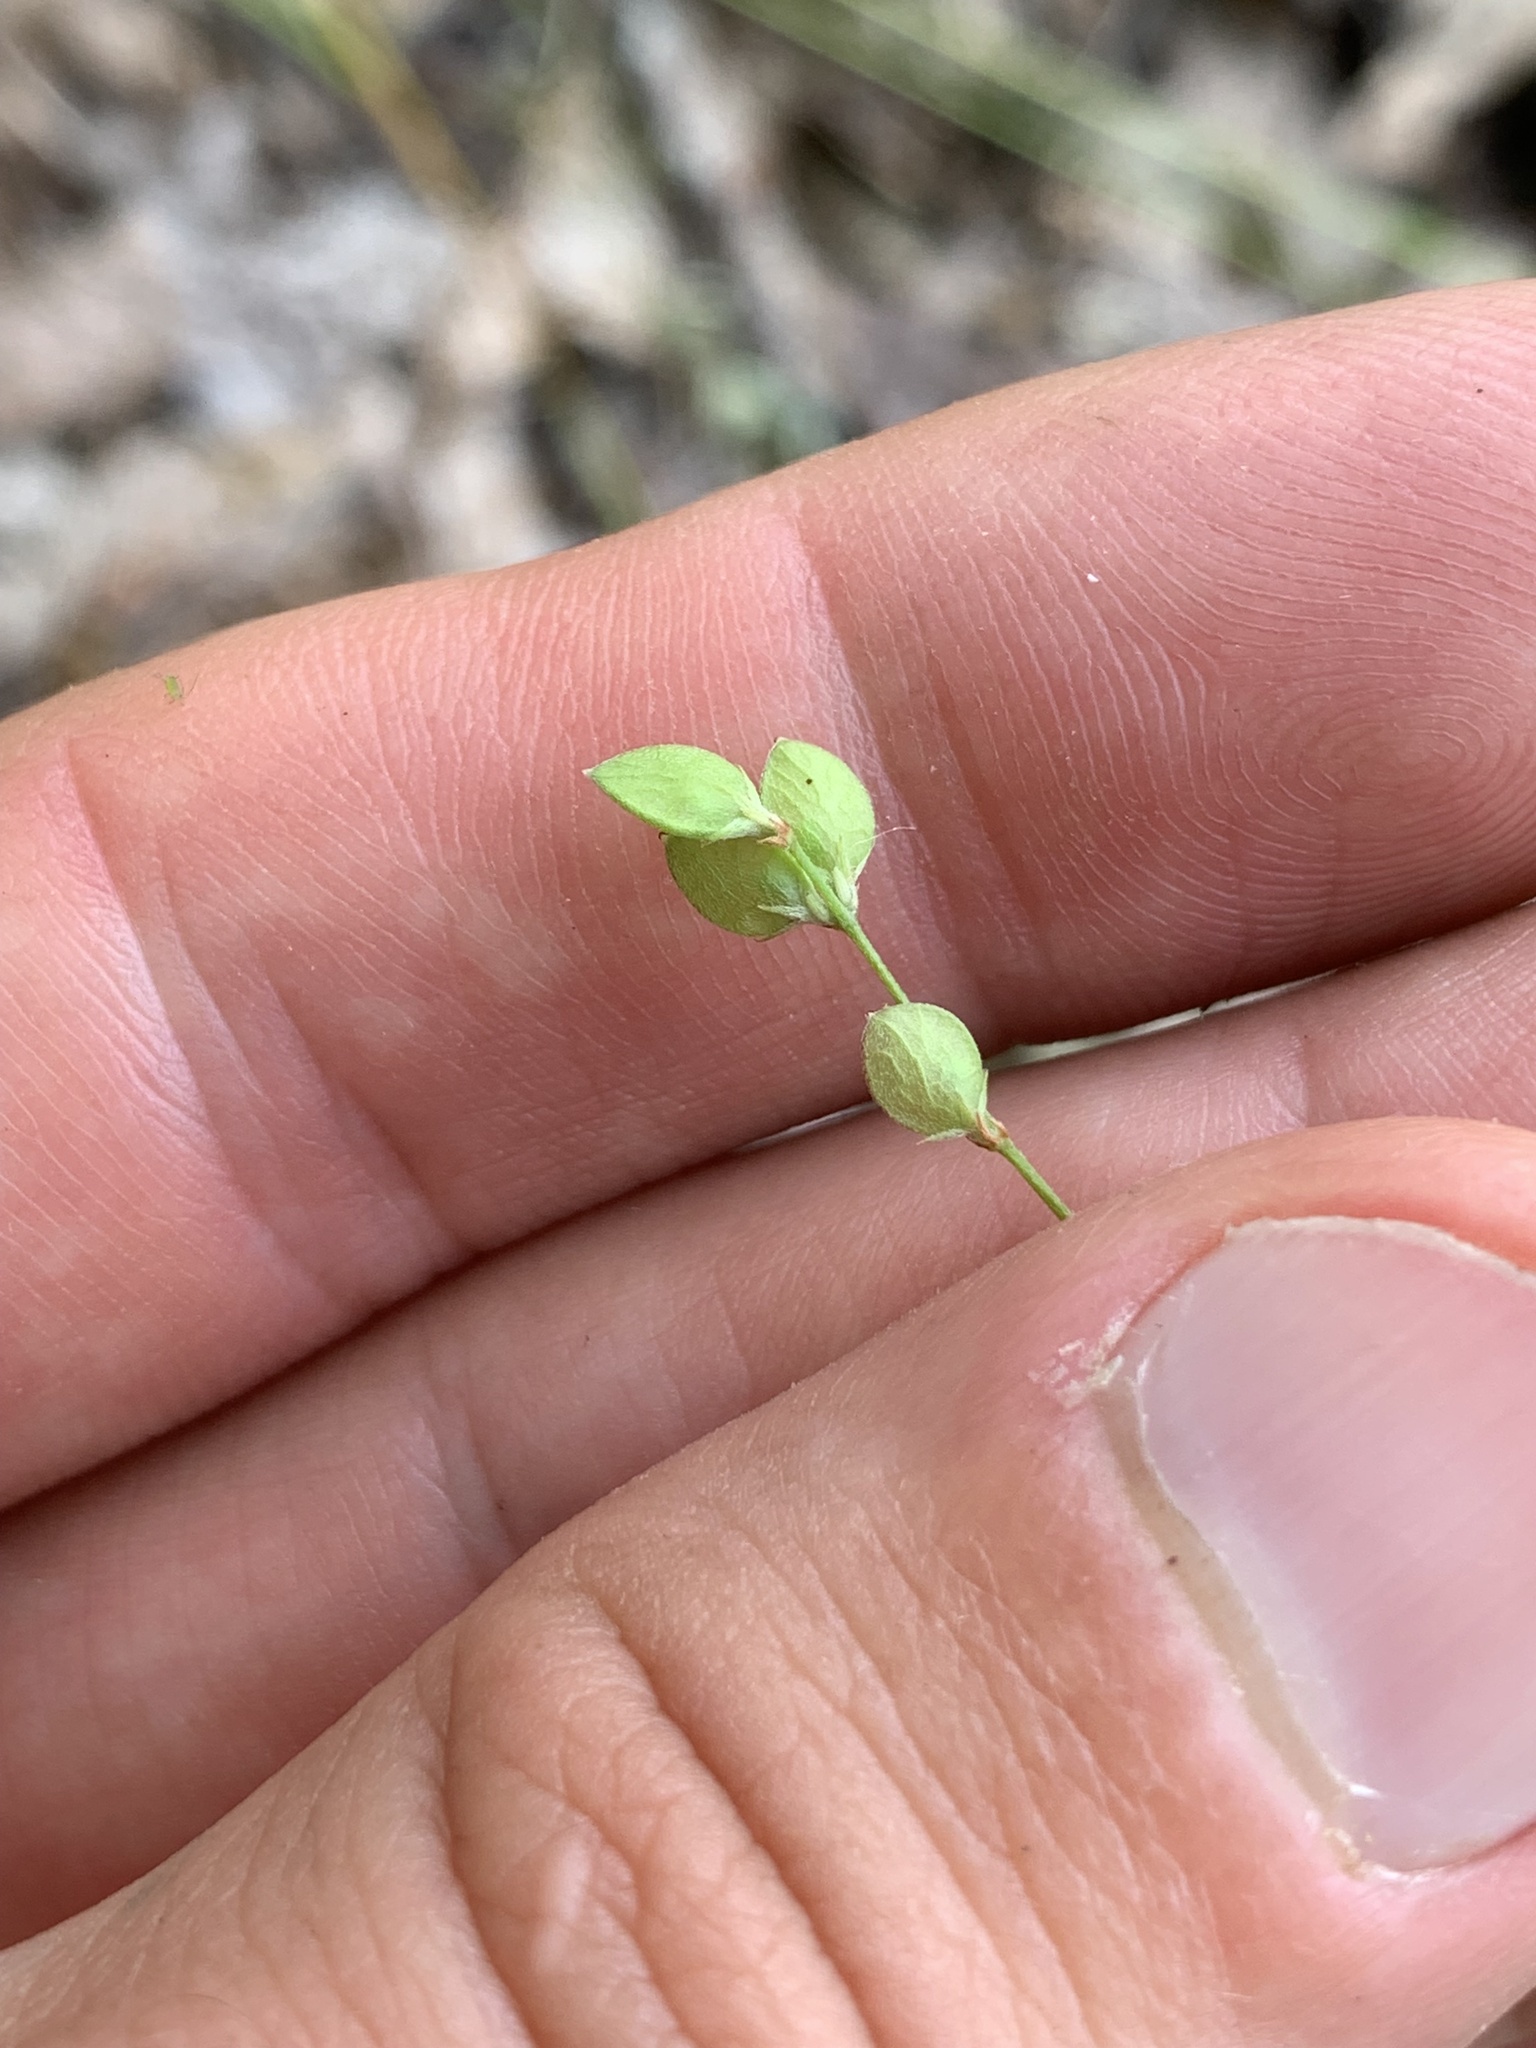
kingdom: Plantae
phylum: Tracheophyta
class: Magnoliopsida
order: Fabales
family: Fabaceae
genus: Lespedeza
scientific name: Lespedeza repens
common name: Creeping bush-clover
